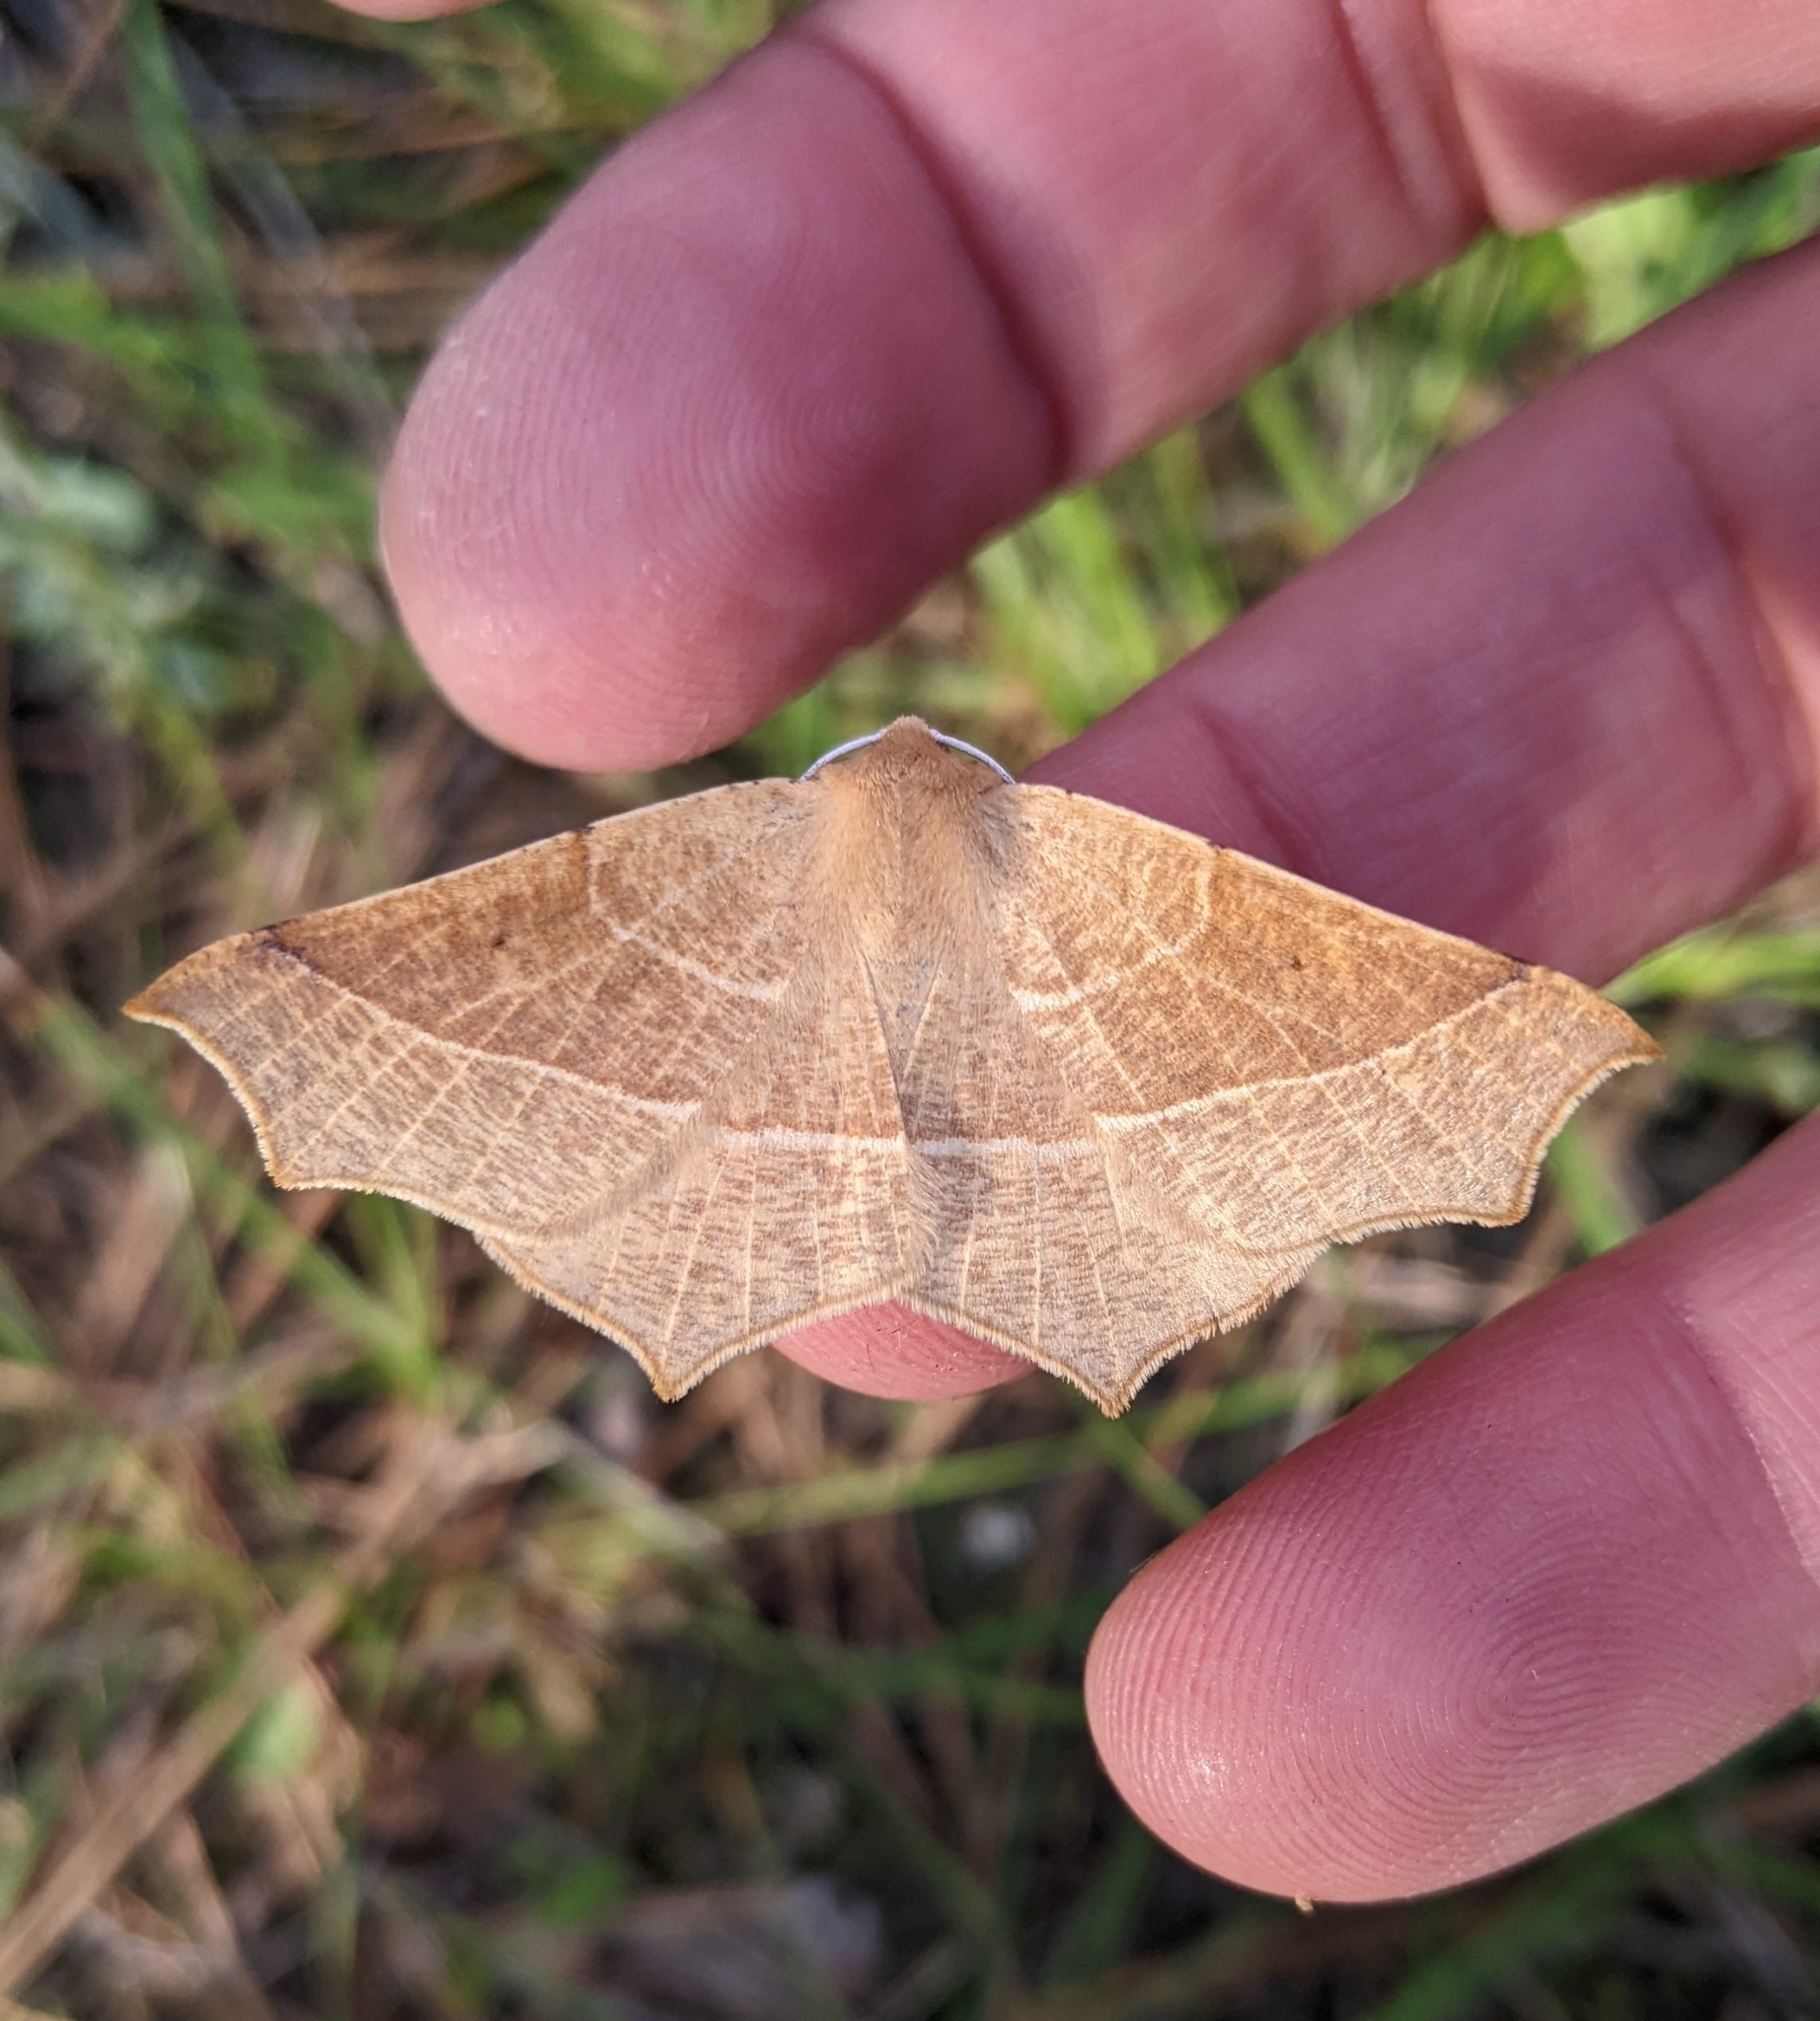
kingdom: Animalia
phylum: Arthropoda
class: Insecta
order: Lepidoptera
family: Geometridae
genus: Tetracis
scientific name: Tetracis cervinaria
